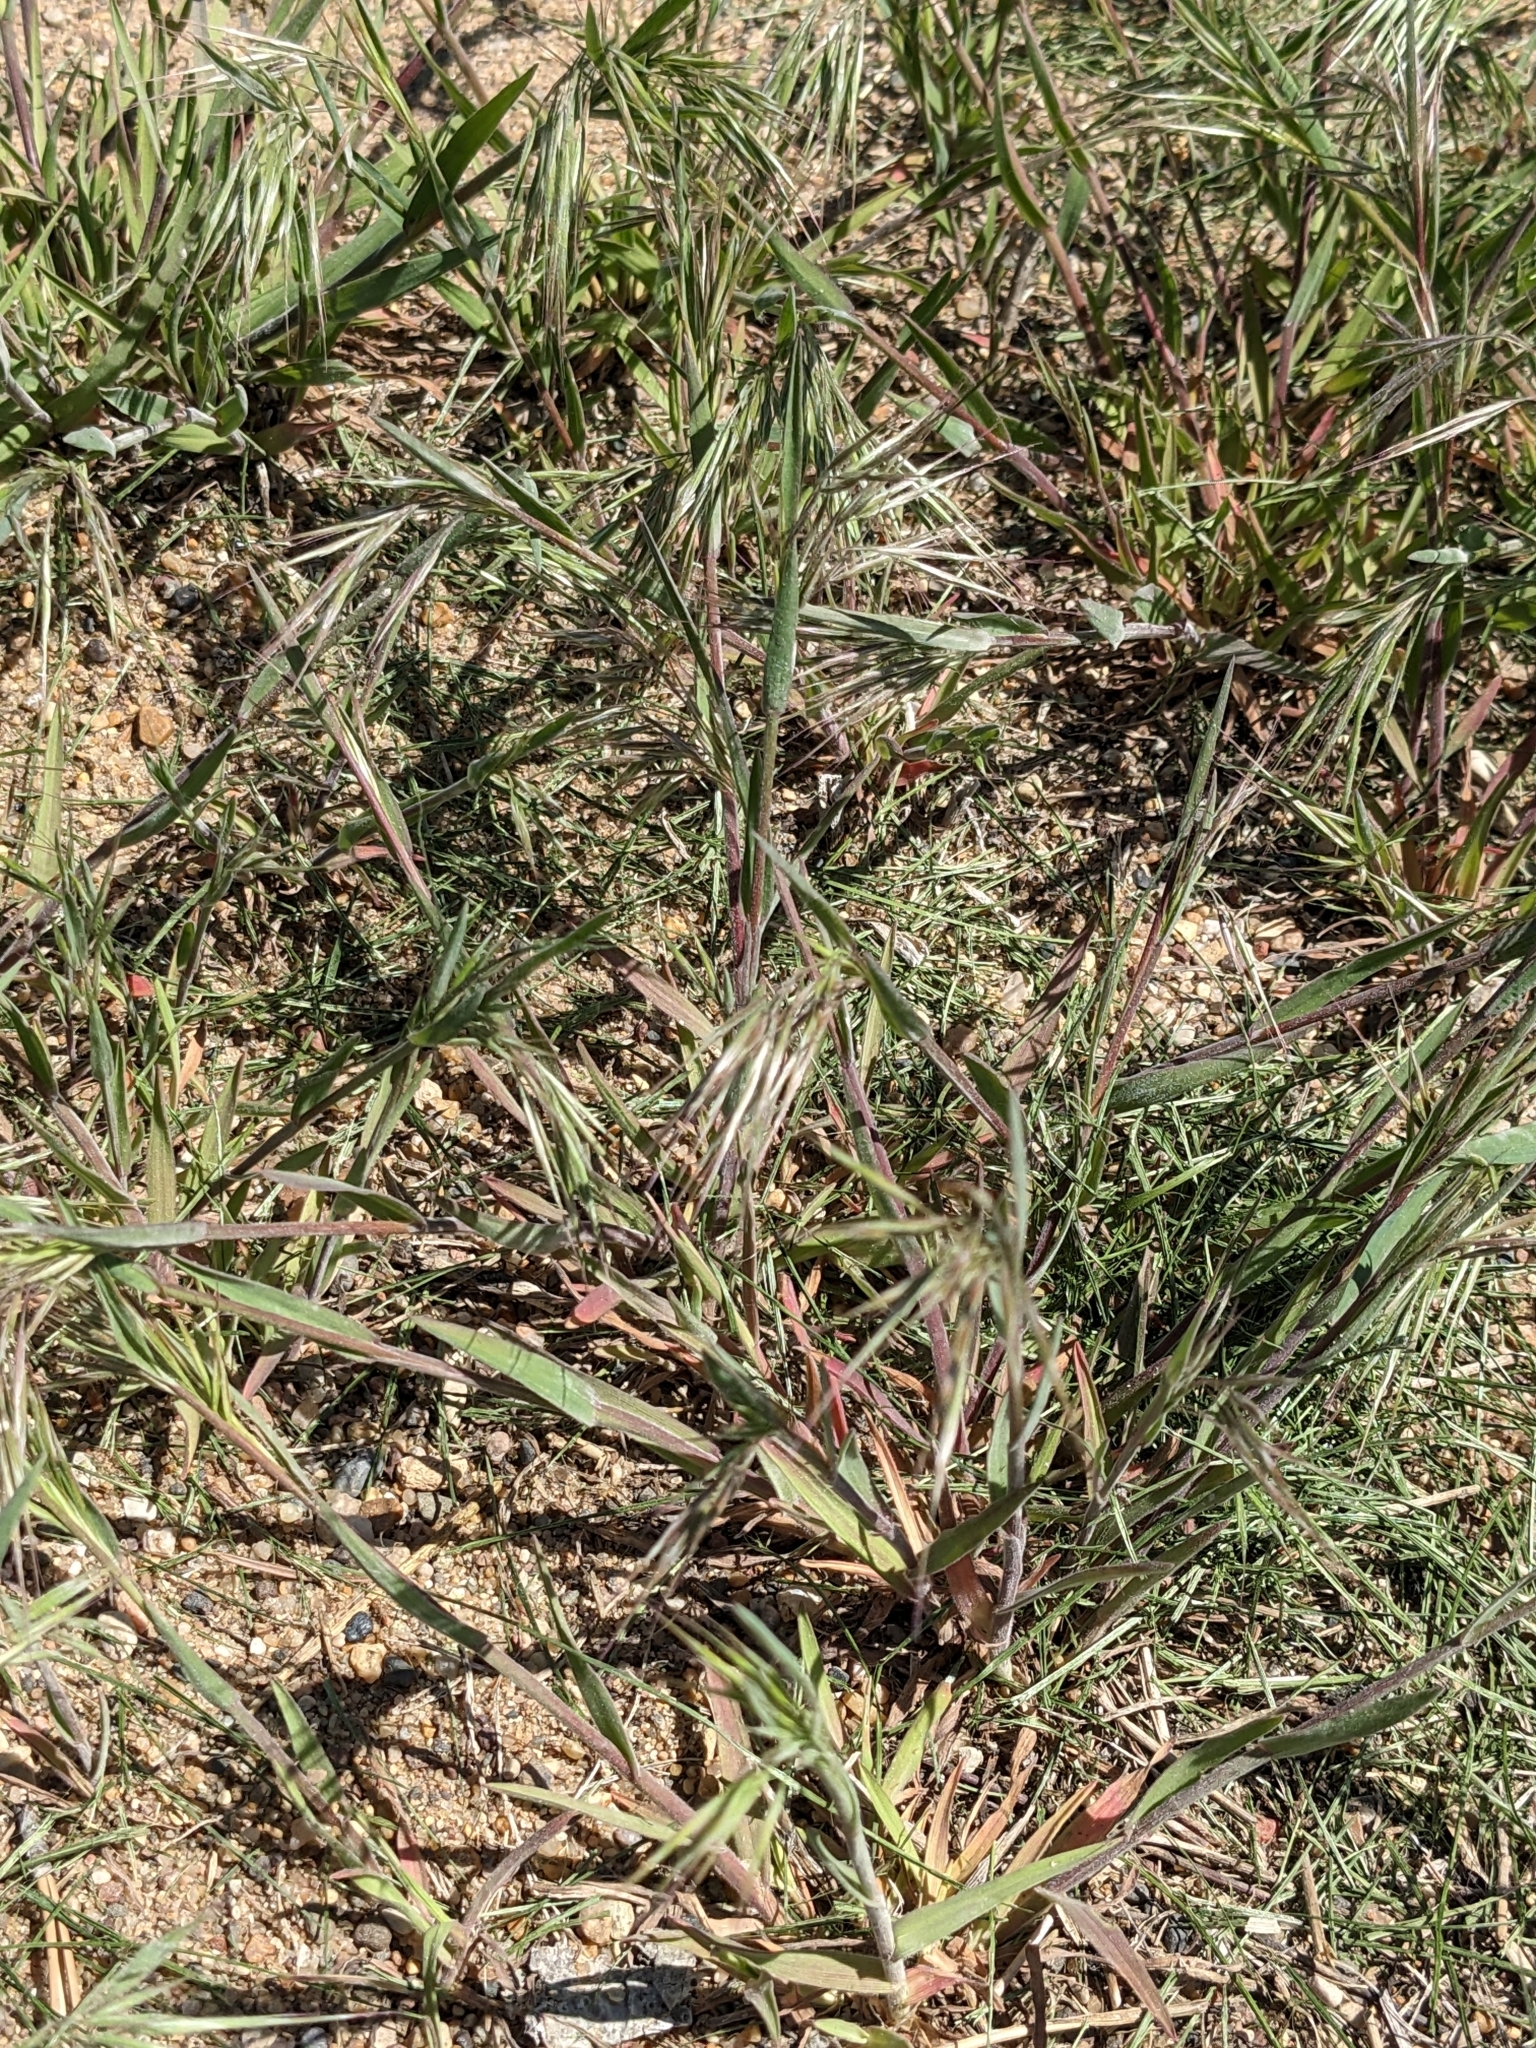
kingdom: Plantae
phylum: Tracheophyta
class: Liliopsida
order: Poales
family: Poaceae
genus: Bromus
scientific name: Bromus tectorum
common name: Cheatgrass
